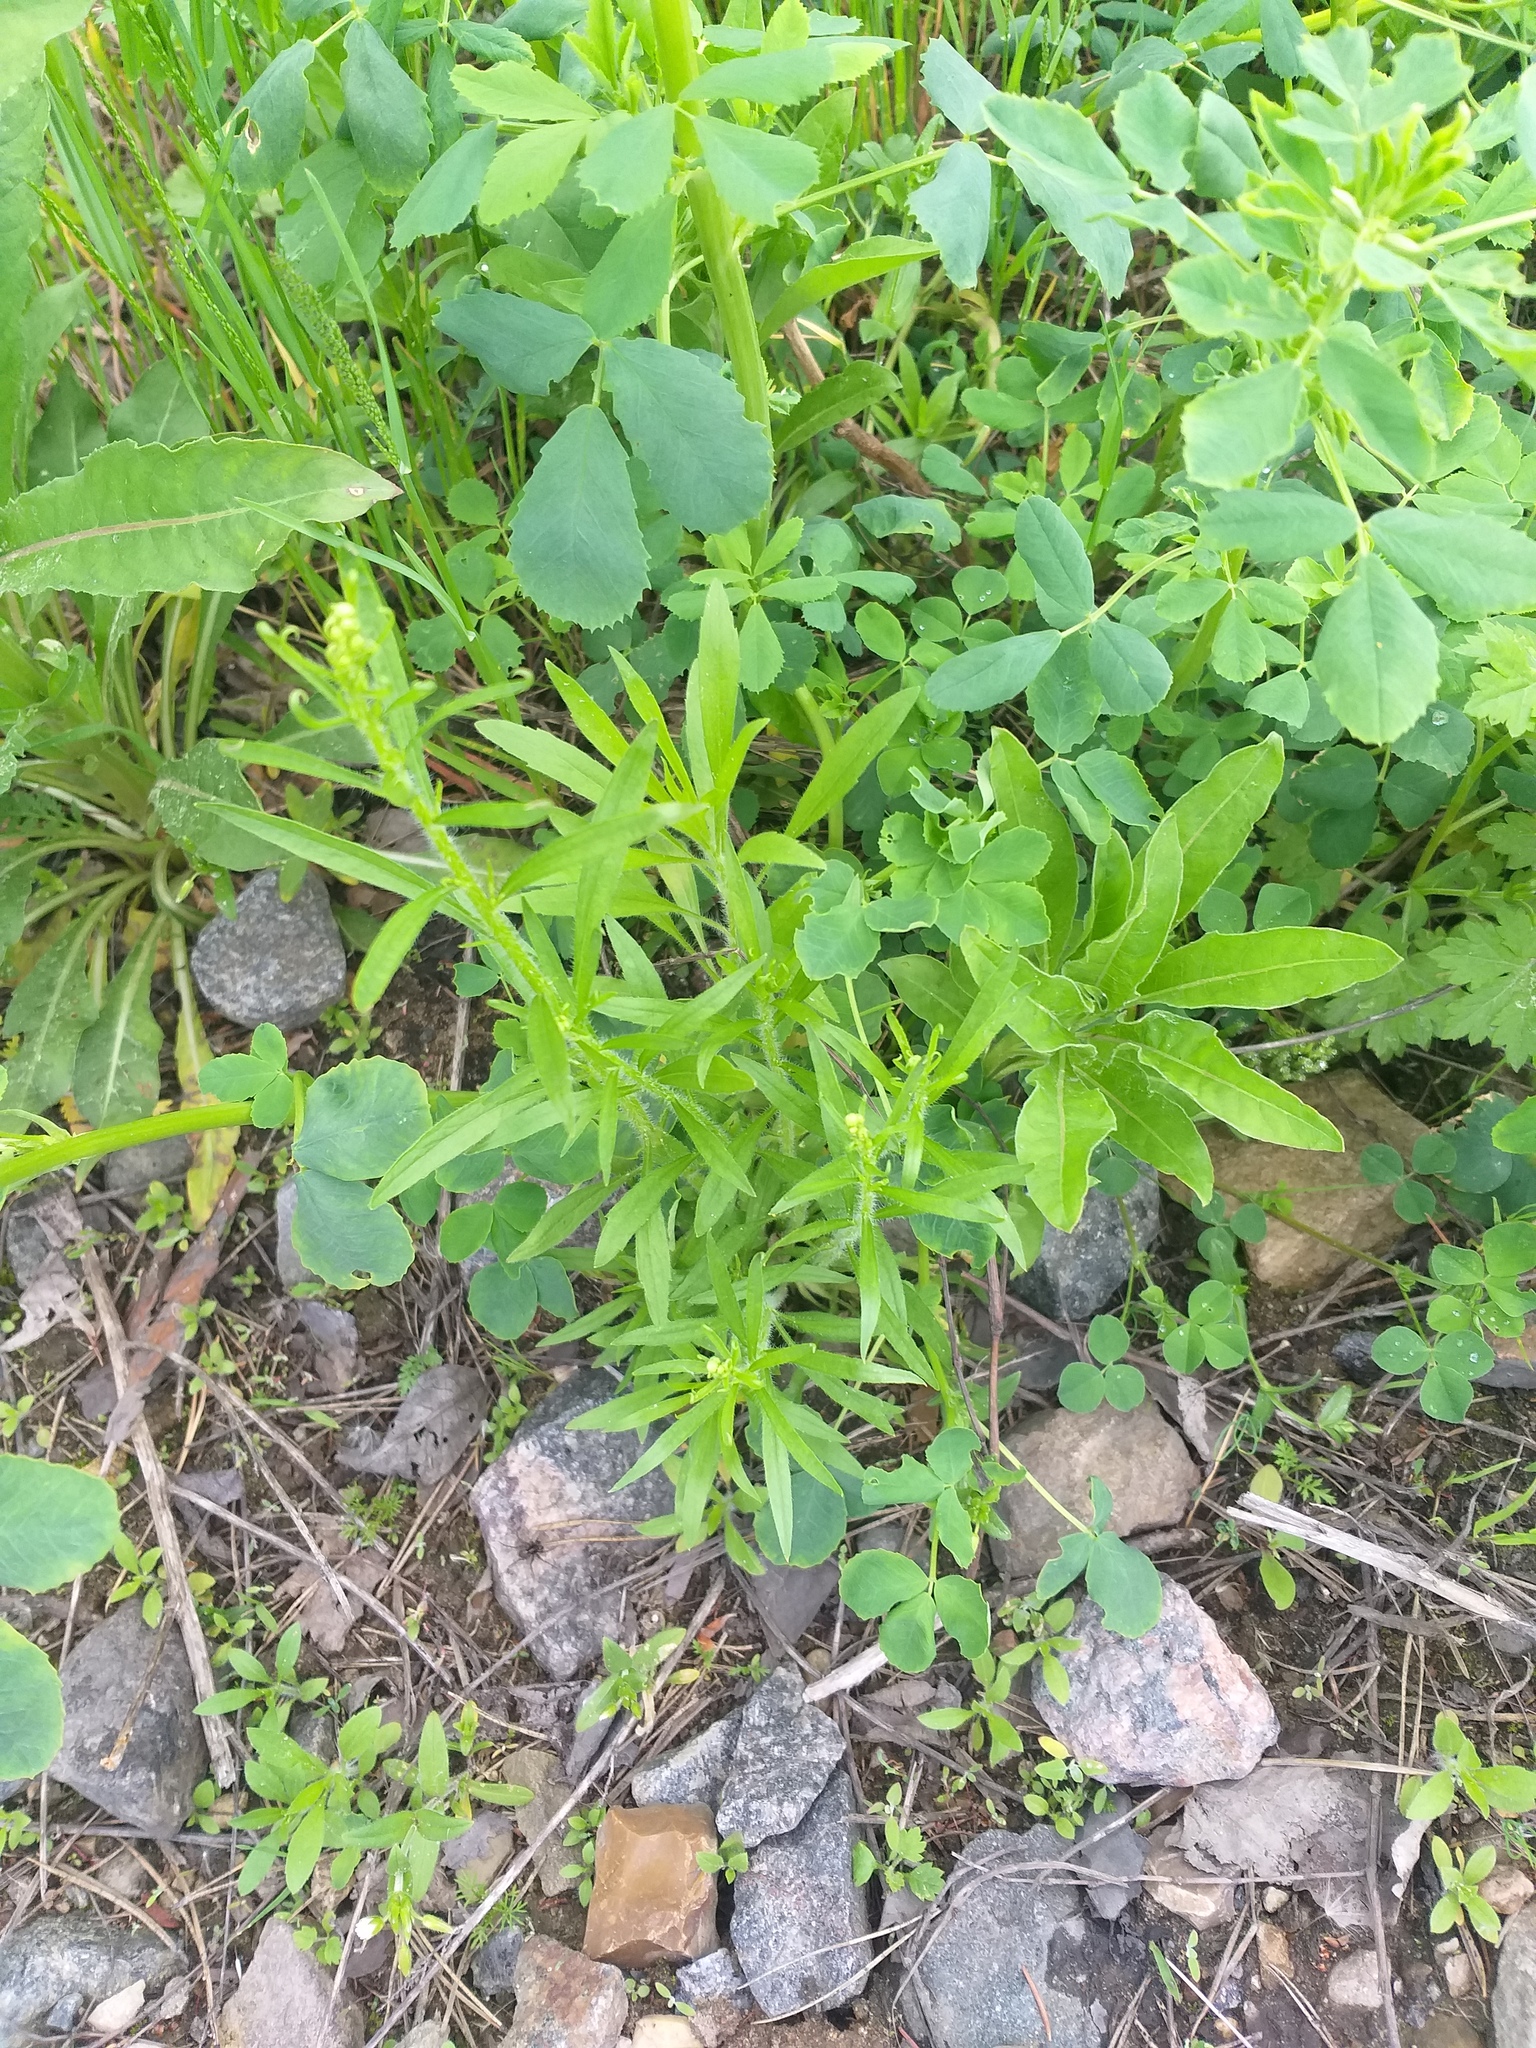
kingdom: Plantae
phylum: Tracheophyta
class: Magnoliopsida
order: Asterales
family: Asteraceae
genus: Erigeron
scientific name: Erigeron canadensis
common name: Canadian fleabane
